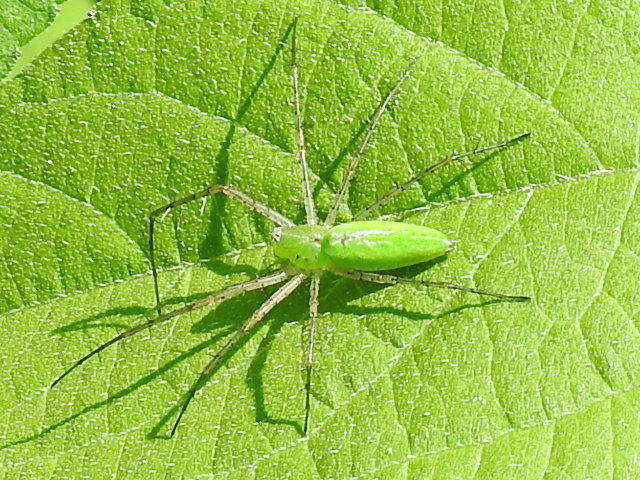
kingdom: Animalia
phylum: Arthropoda
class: Arachnida
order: Araneae
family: Oxyopidae
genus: Peucetia
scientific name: Peucetia viridans
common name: Lynx spiders
